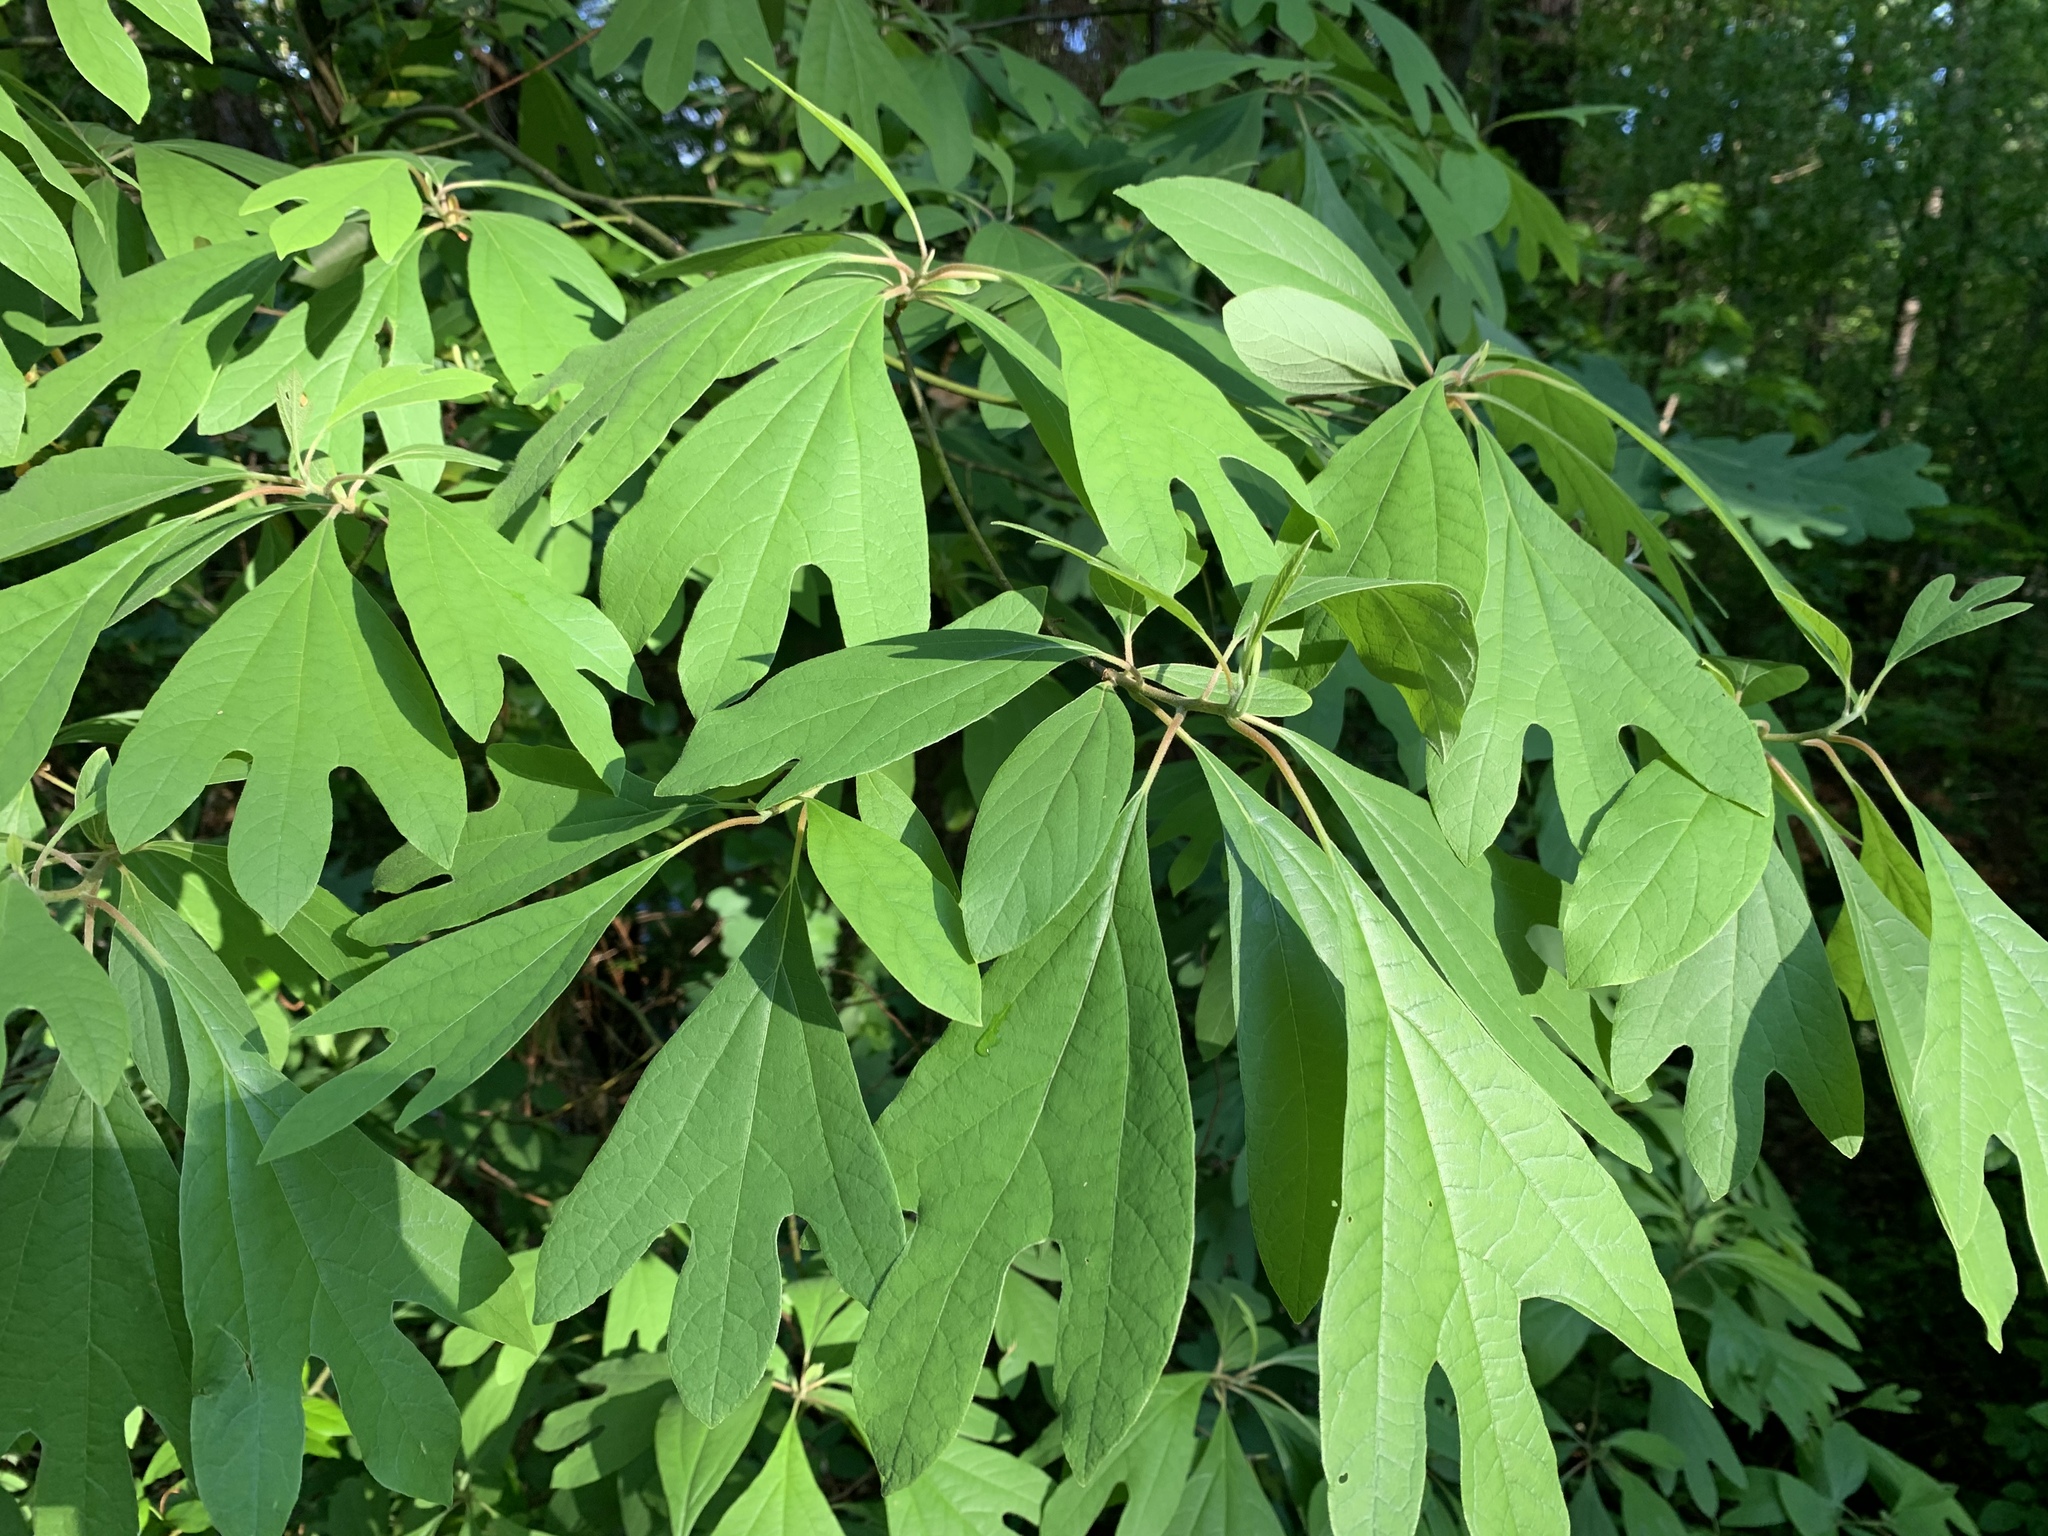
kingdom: Plantae
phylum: Tracheophyta
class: Magnoliopsida
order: Laurales
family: Lauraceae
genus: Sassafras
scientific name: Sassafras albidum
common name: Sassafras
